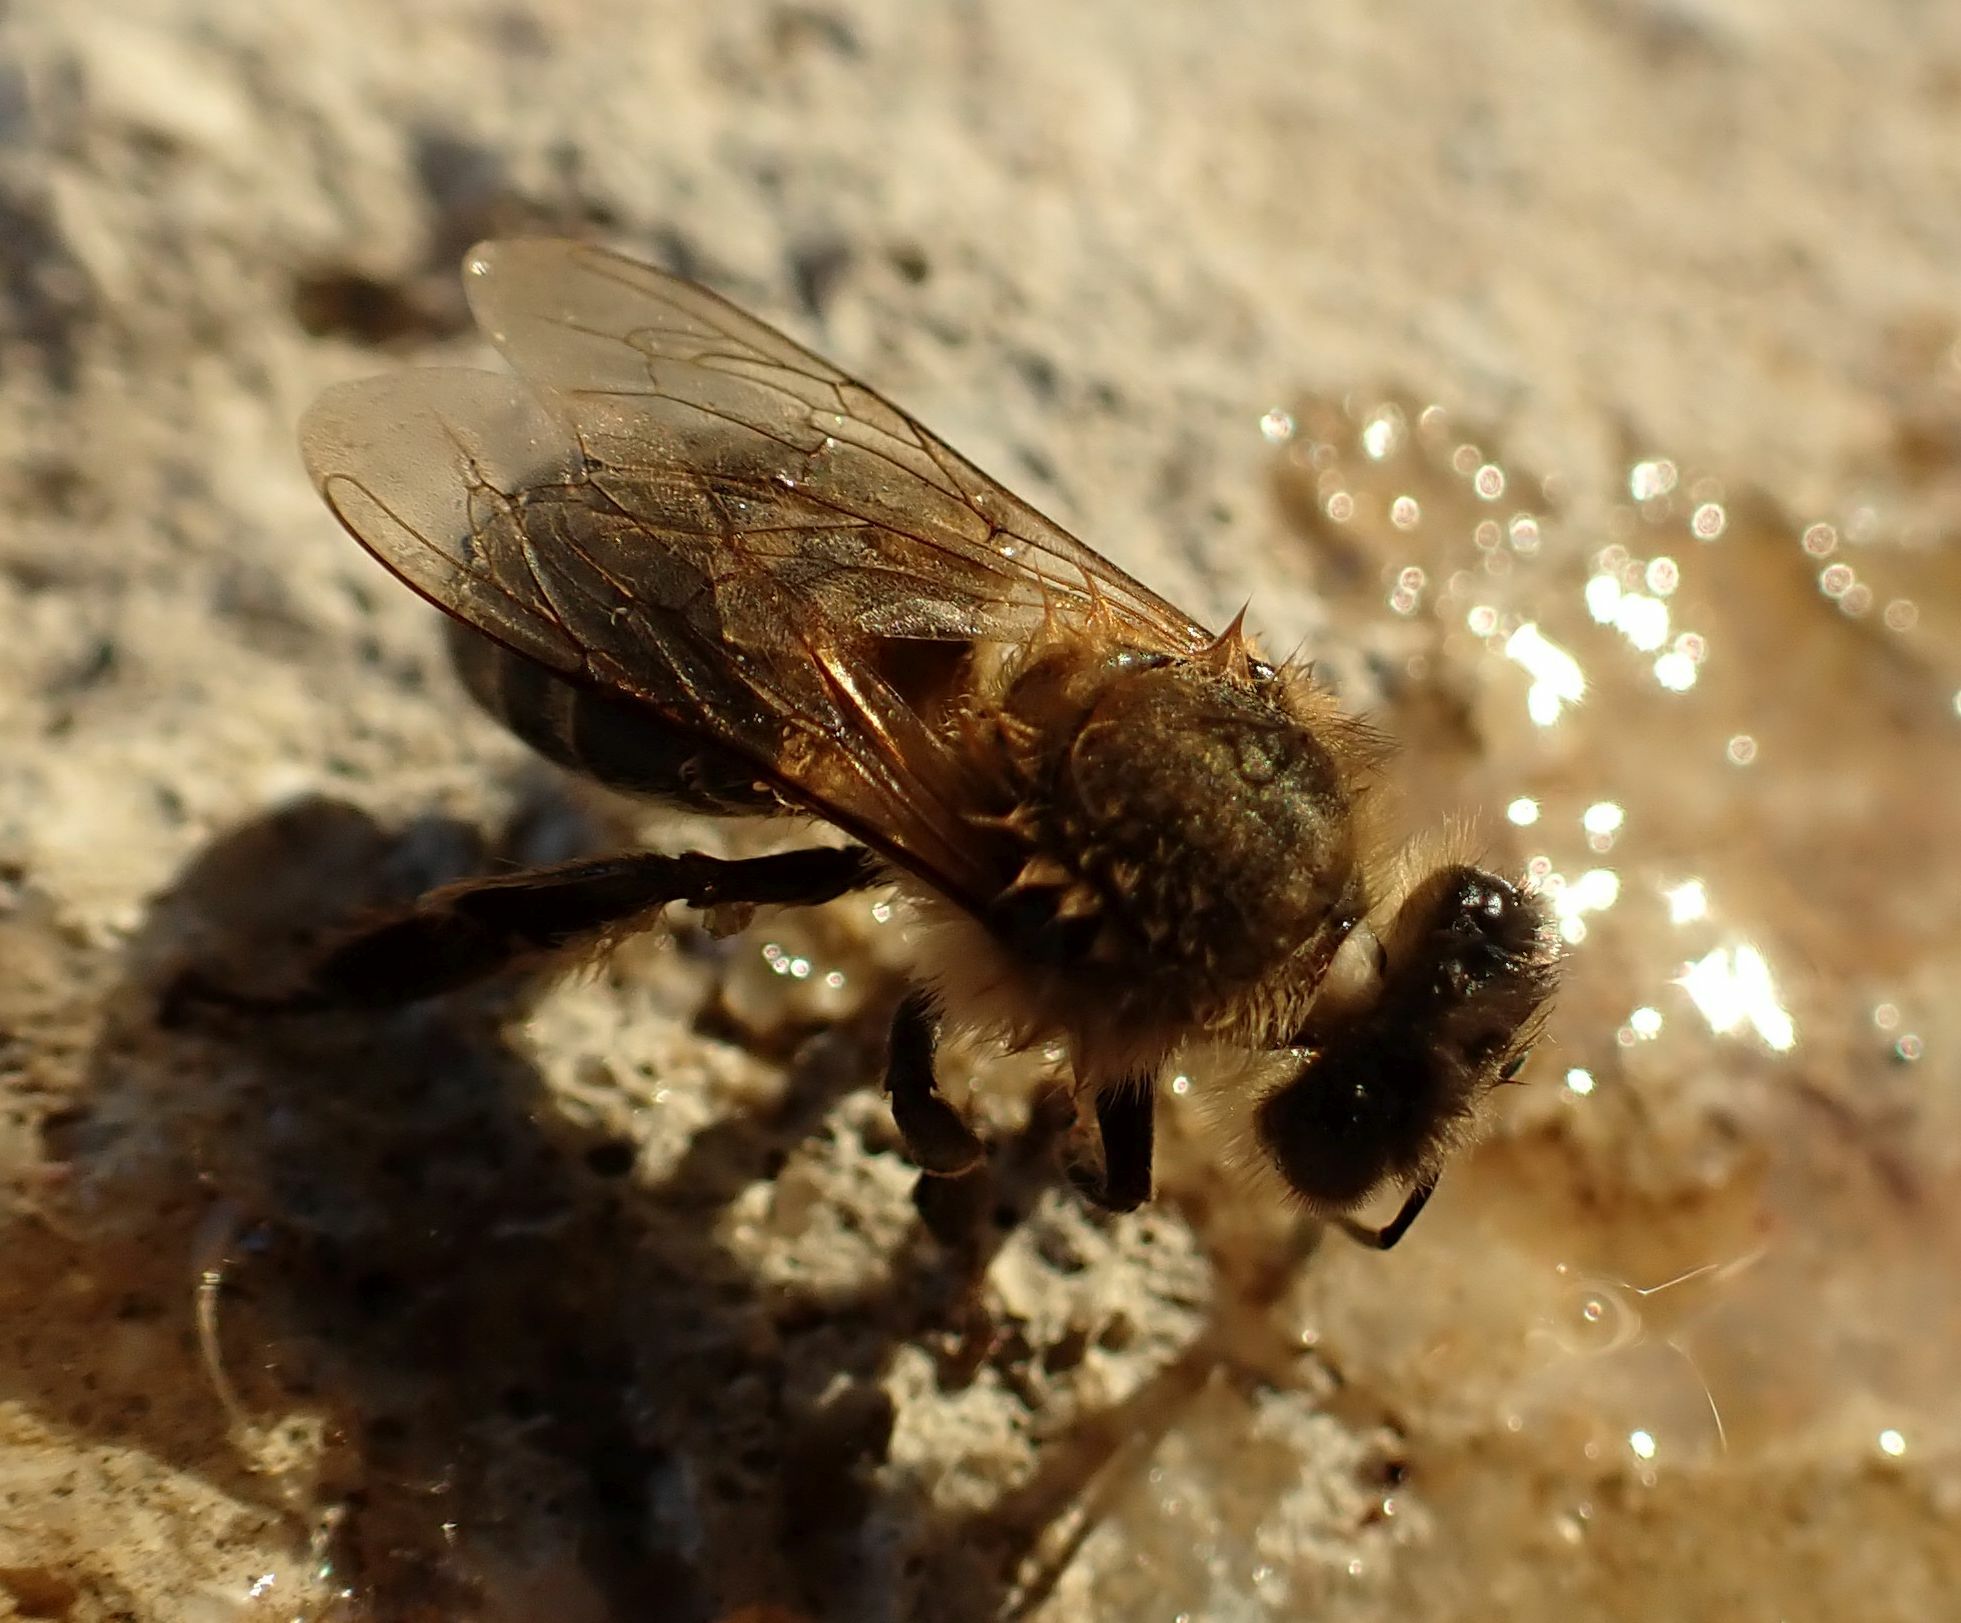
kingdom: Animalia
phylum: Arthropoda
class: Insecta
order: Hymenoptera
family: Apidae
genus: Apis
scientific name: Apis mellifera
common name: Honey bee
